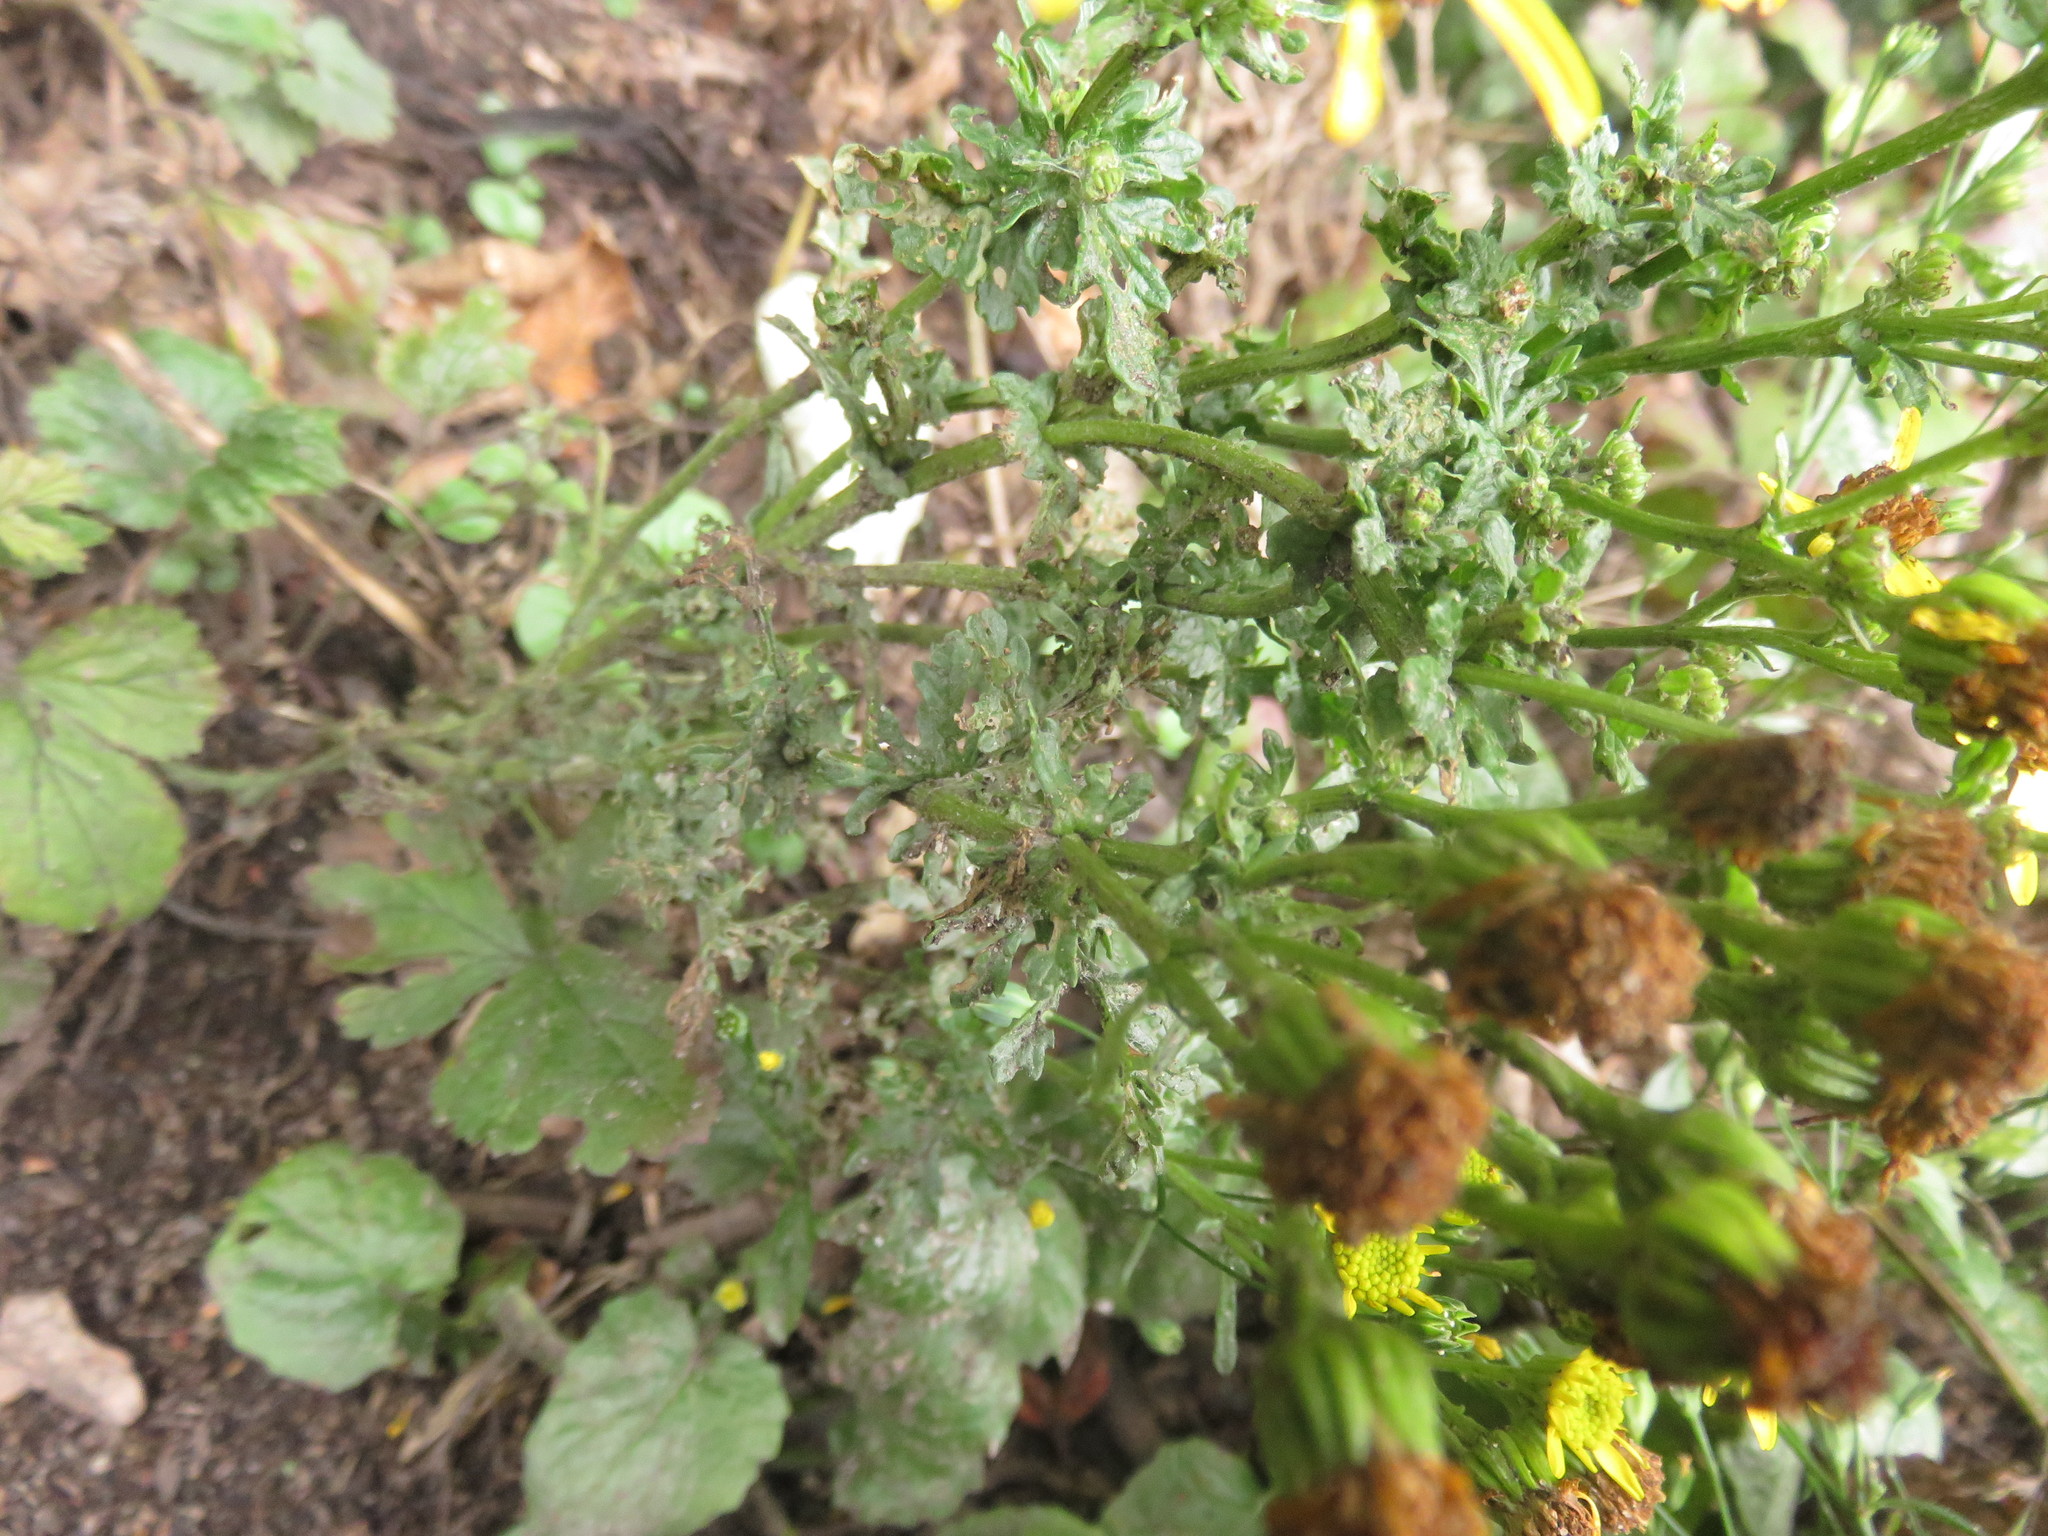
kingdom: Plantae
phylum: Tracheophyta
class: Magnoliopsida
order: Asterales
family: Asteraceae
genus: Jacobaea
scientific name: Jacobaea vulgaris
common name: Stinking willie
